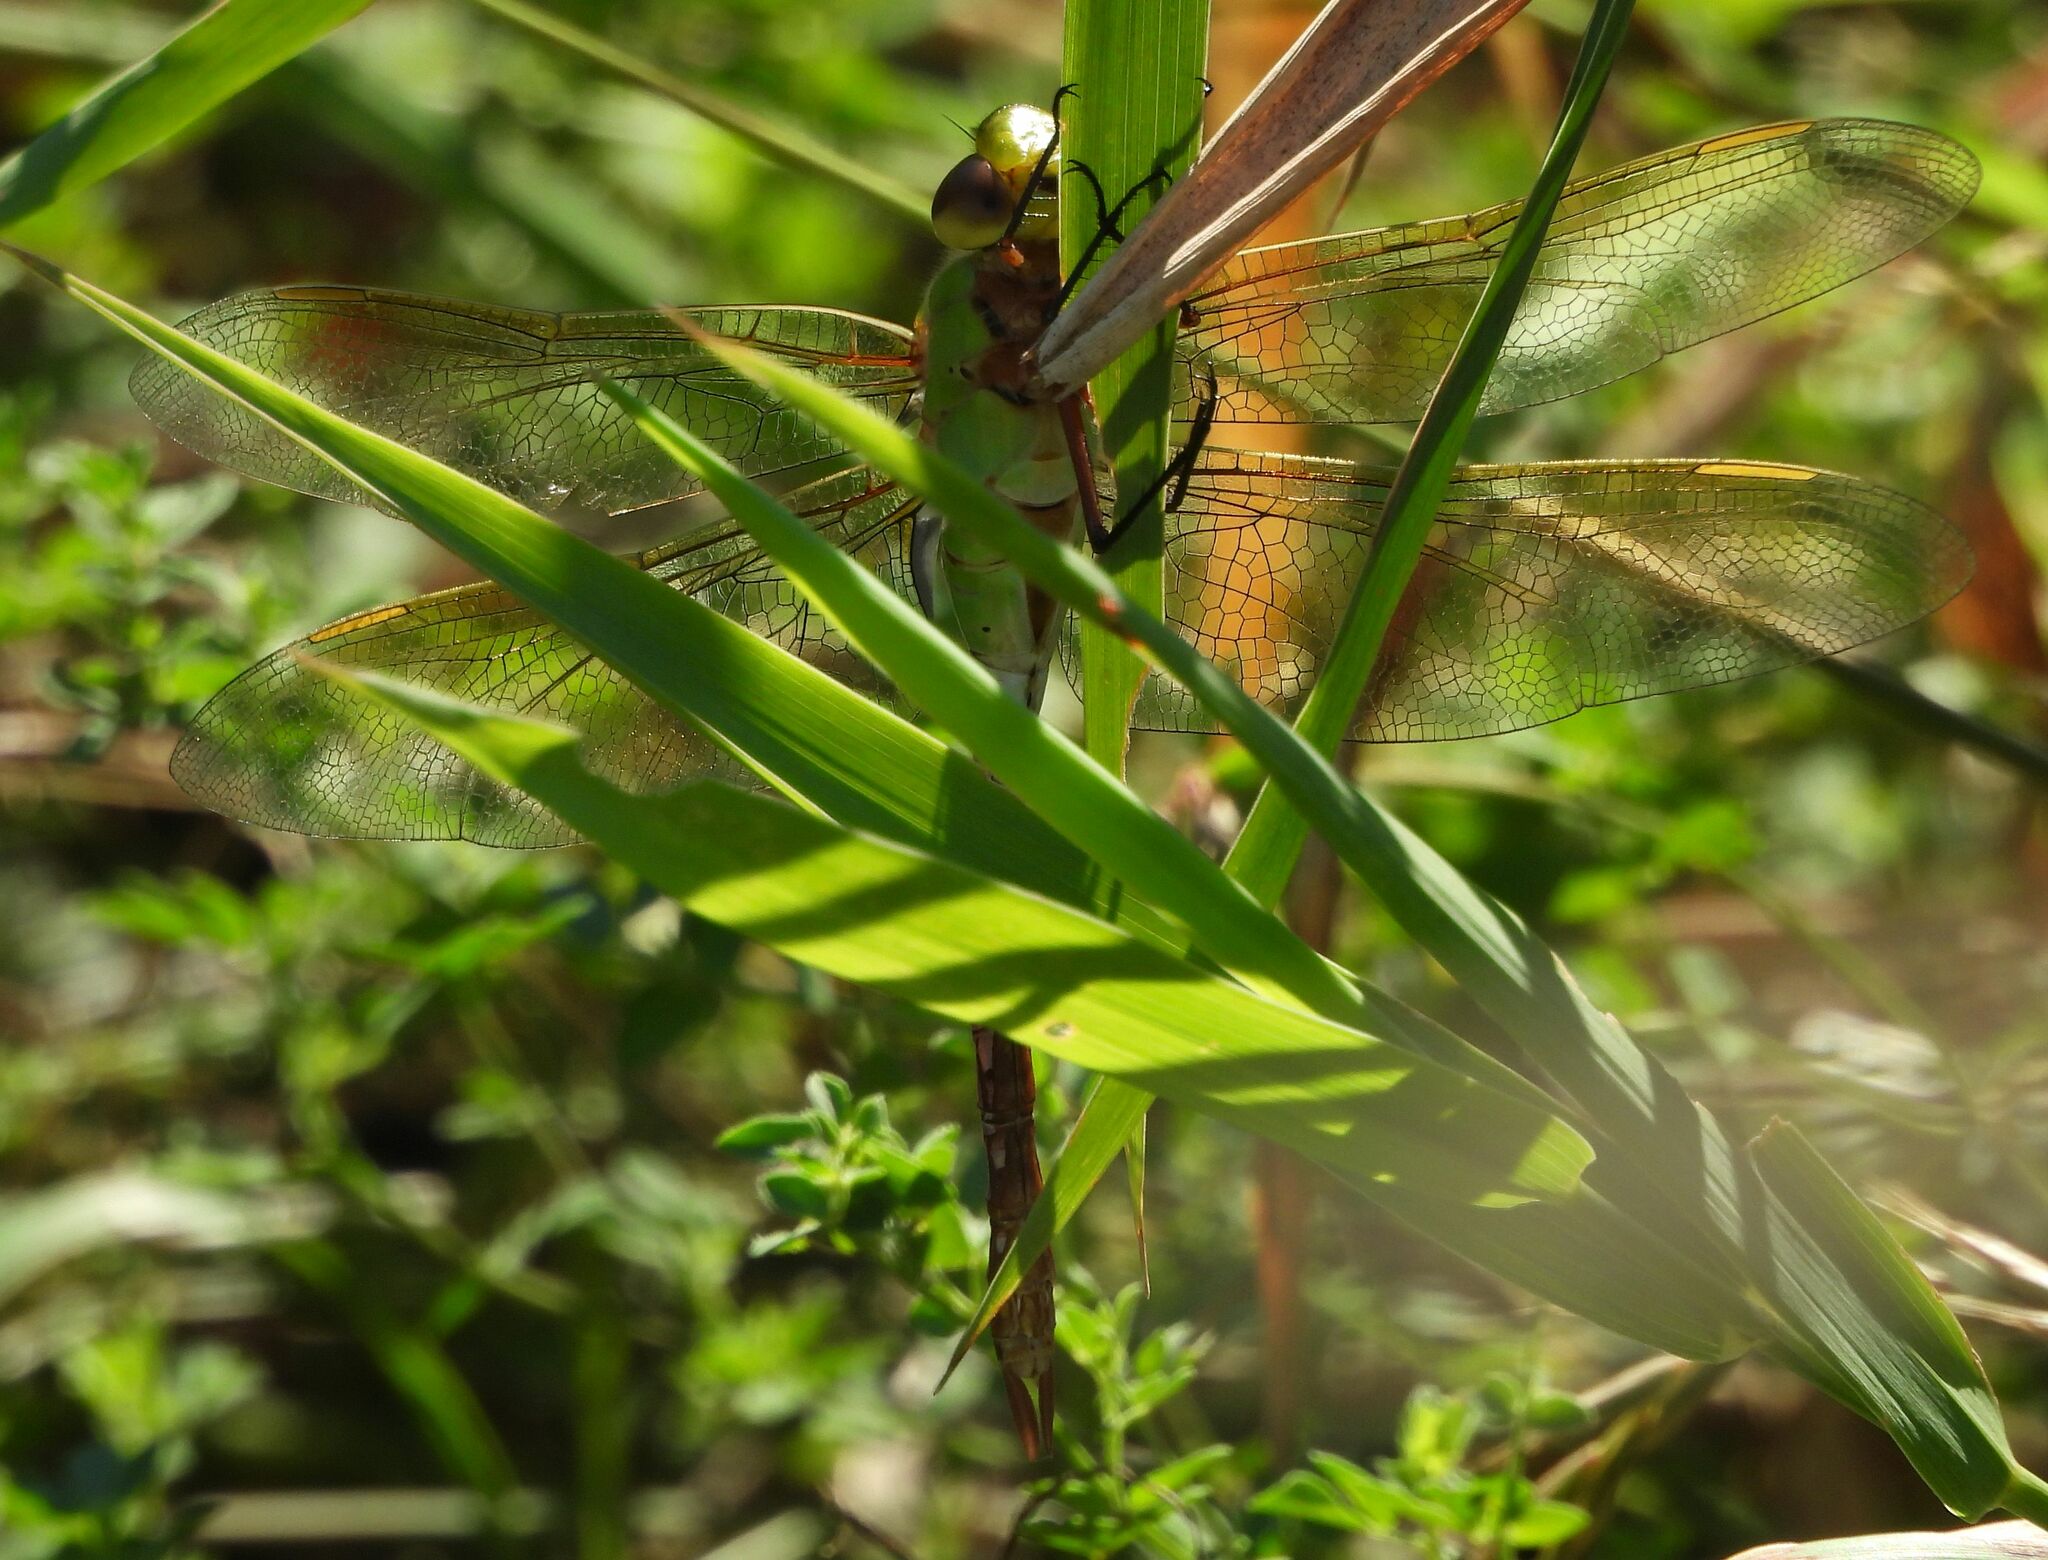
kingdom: Animalia
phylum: Arthropoda
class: Insecta
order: Odonata
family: Aeshnidae
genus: Anax
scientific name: Anax junius
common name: Common green darner
